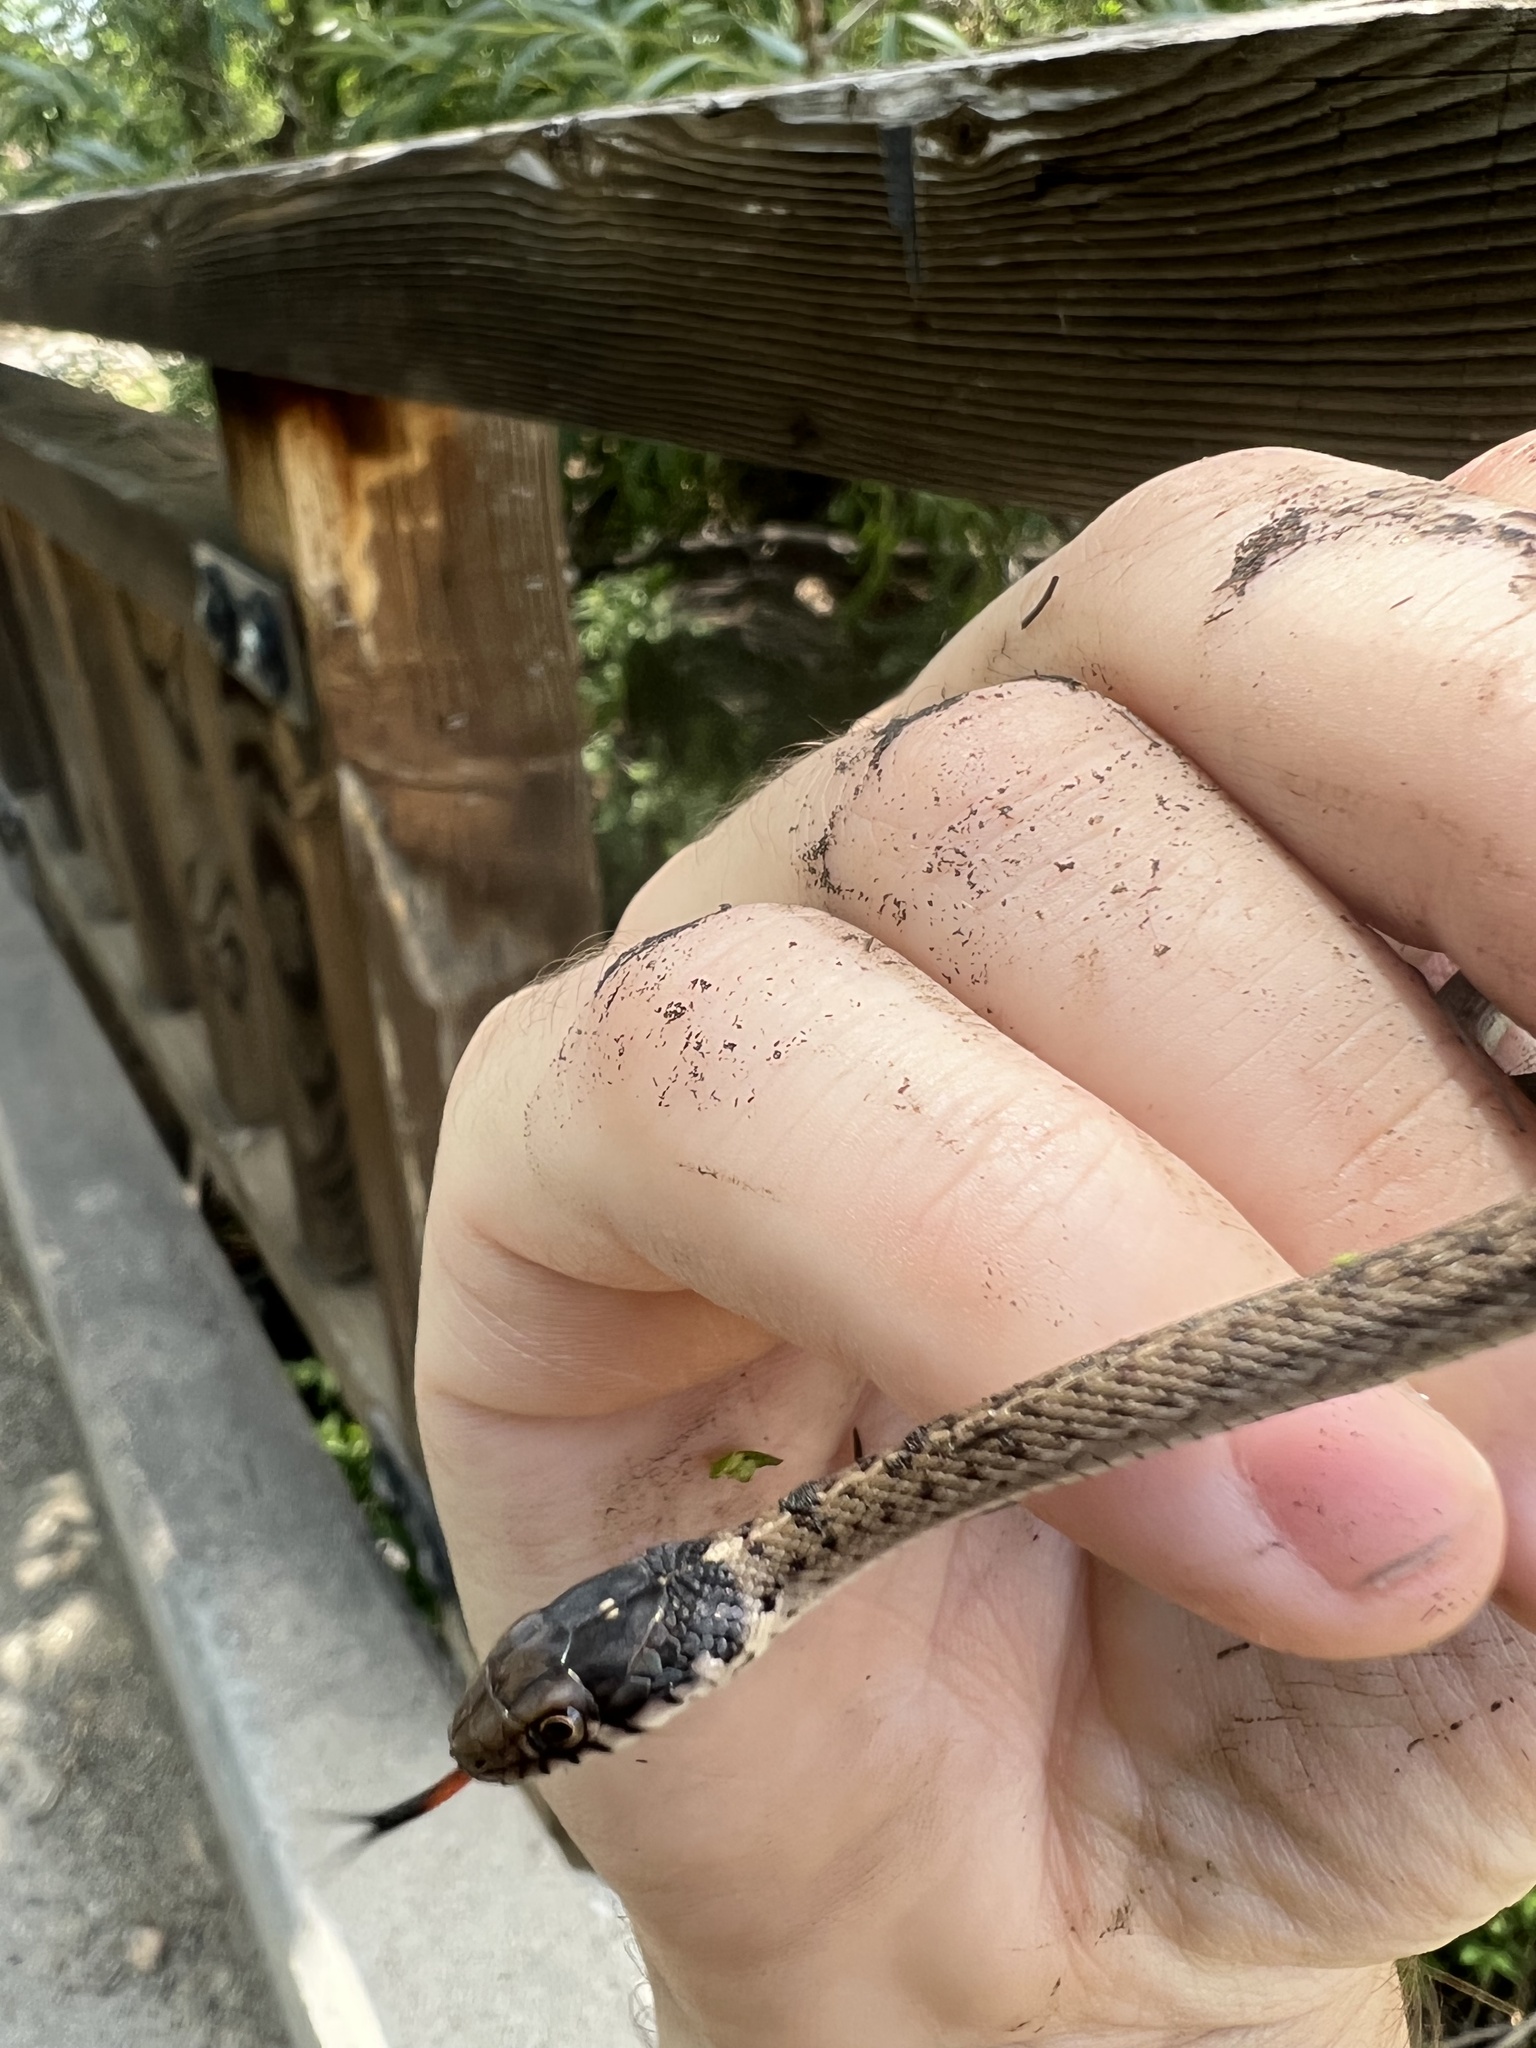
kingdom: Animalia
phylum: Chordata
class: Squamata
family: Colubridae
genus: Thamnophis
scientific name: Thamnophis elegans
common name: Western terrestrial garter snake
